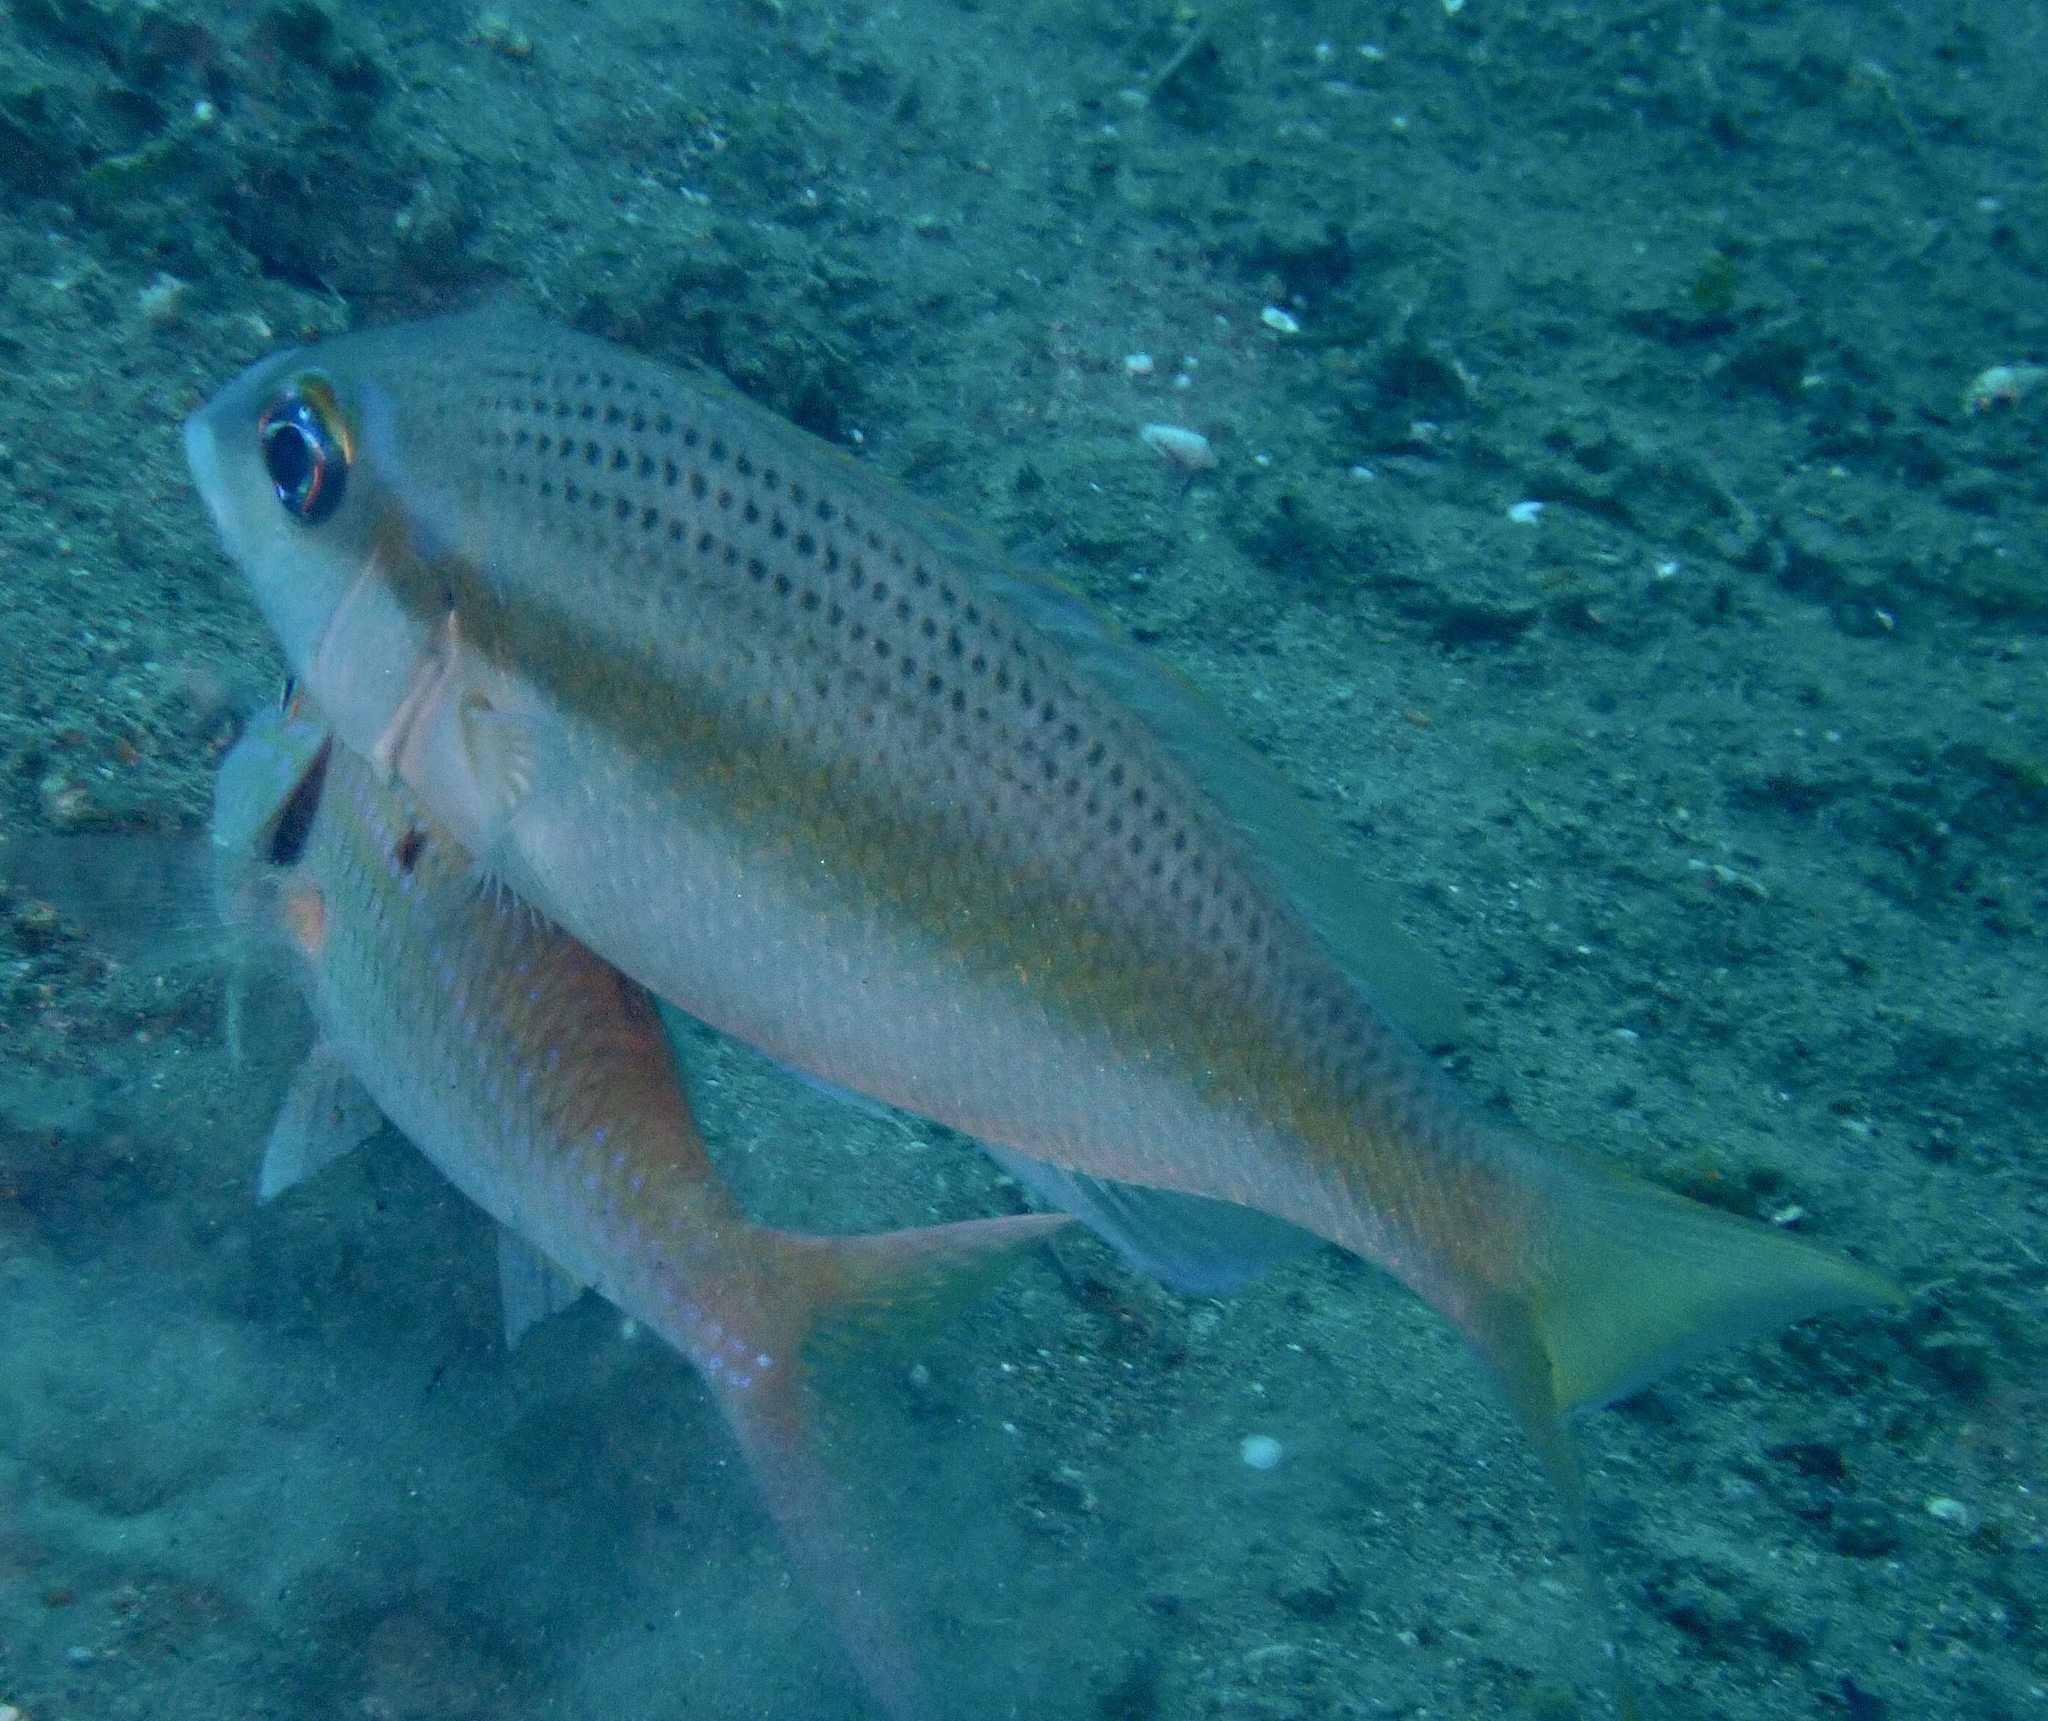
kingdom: Animalia
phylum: Chordata
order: Perciformes
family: Nemipteridae
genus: Scolopsis
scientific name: Scolopsis affinis
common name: Peters' monocle bream
